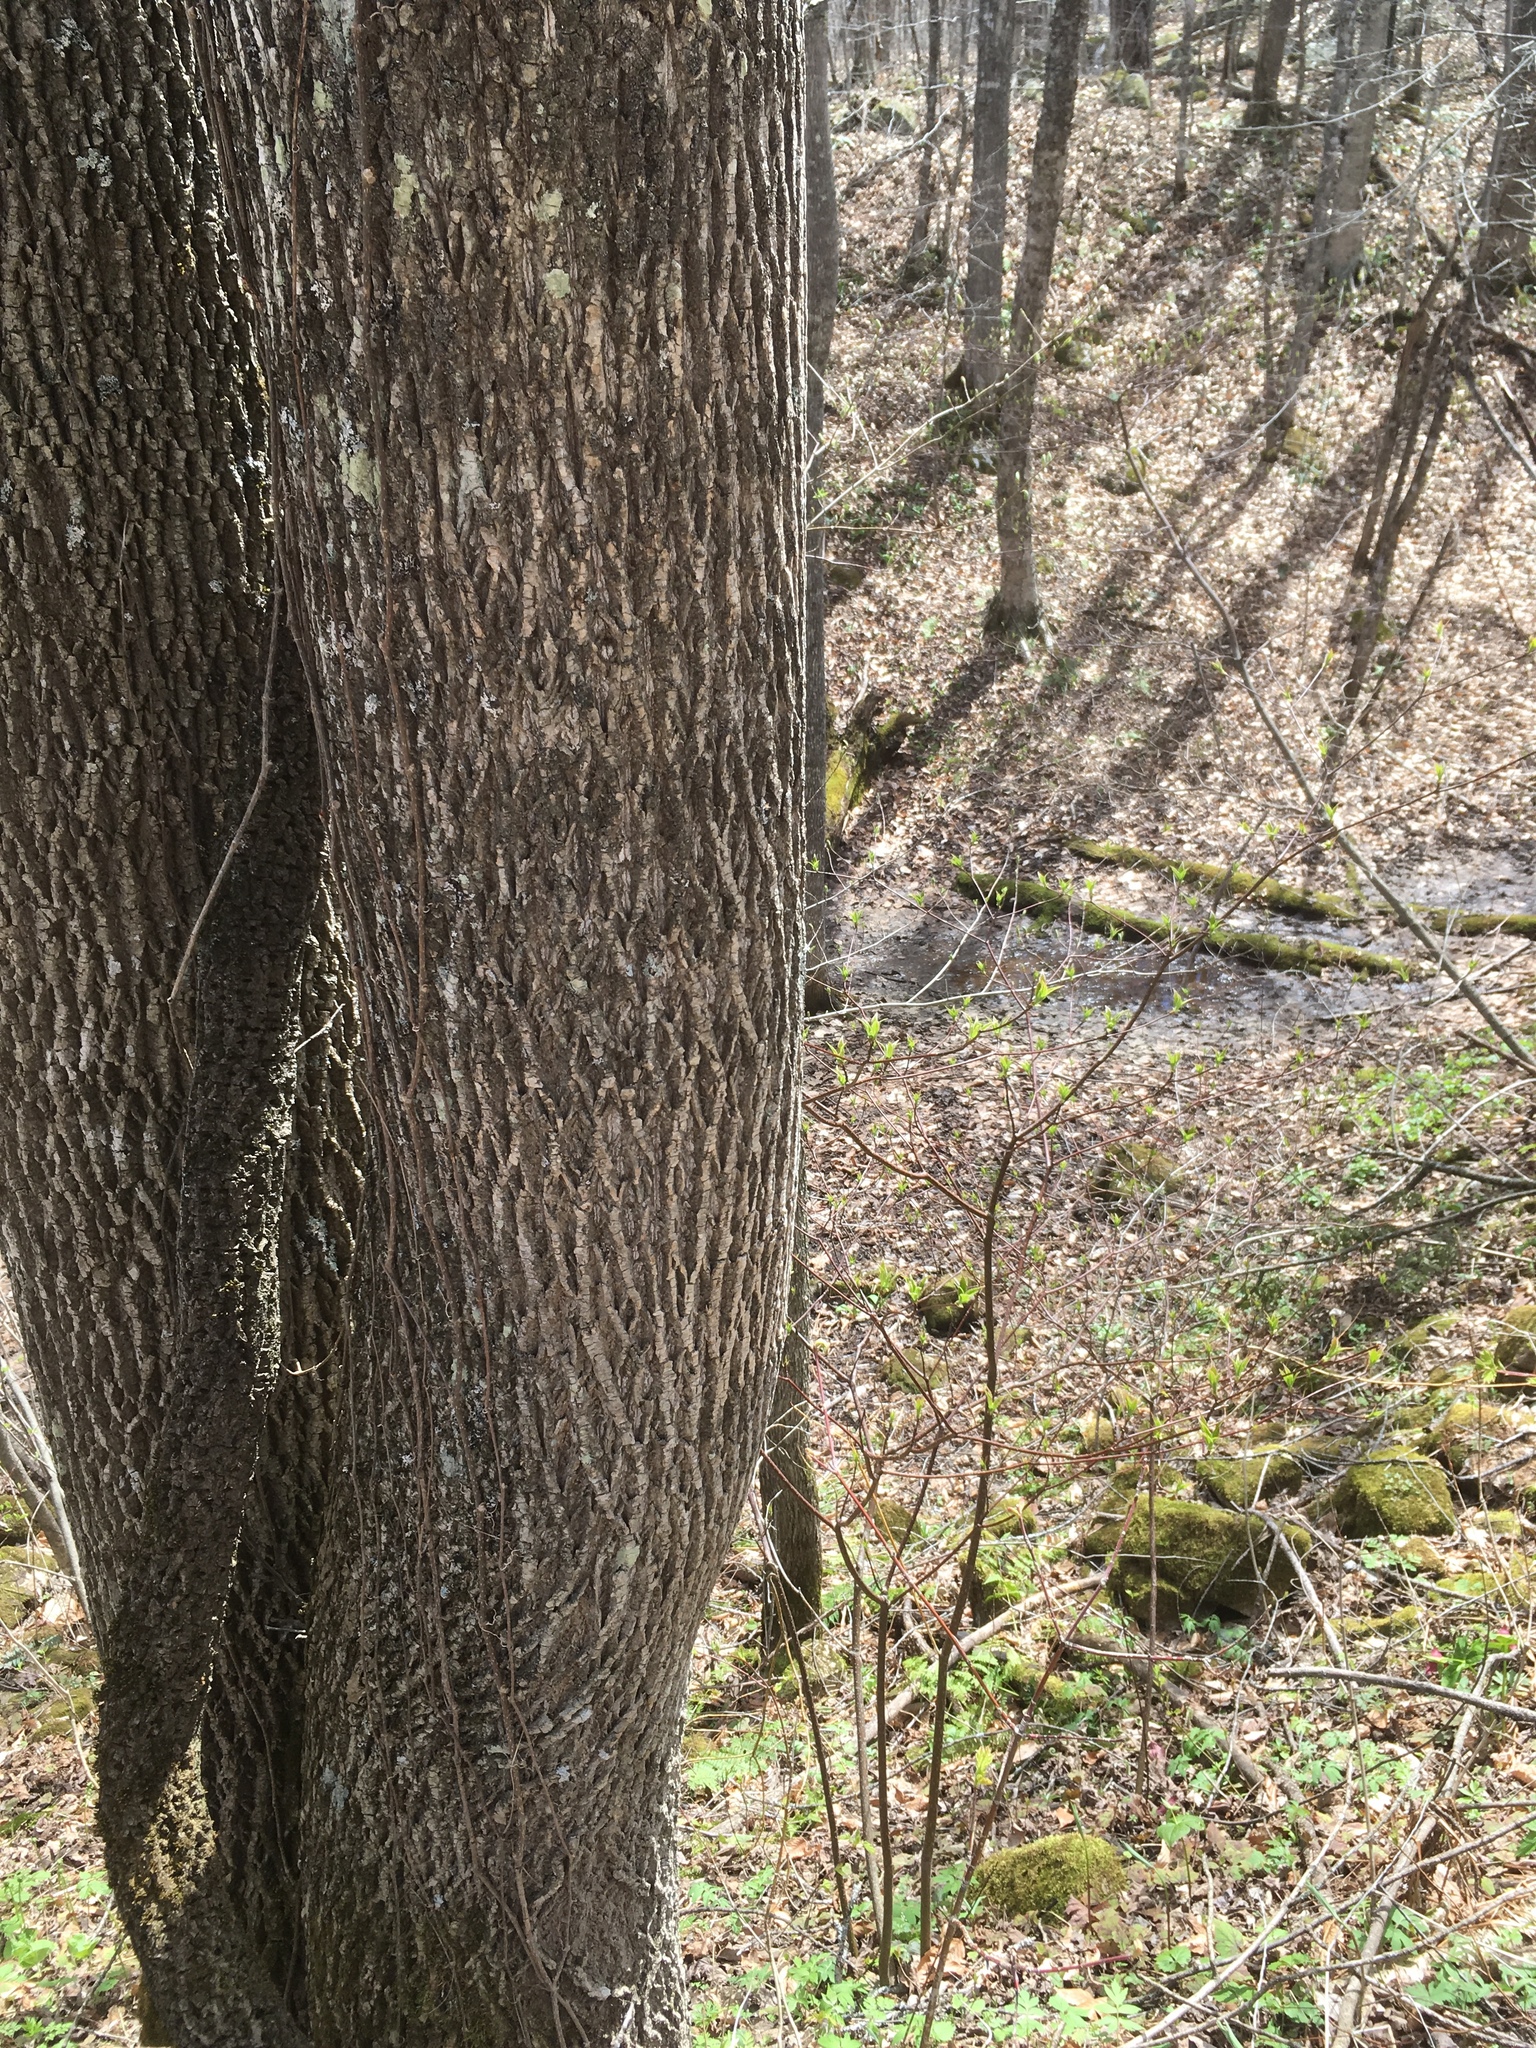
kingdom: Plantae
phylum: Tracheophyta
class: Magnoliopsida
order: Lamiales
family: Oleaceae
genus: Fraxinus
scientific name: Fraxinus americana
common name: White ash
